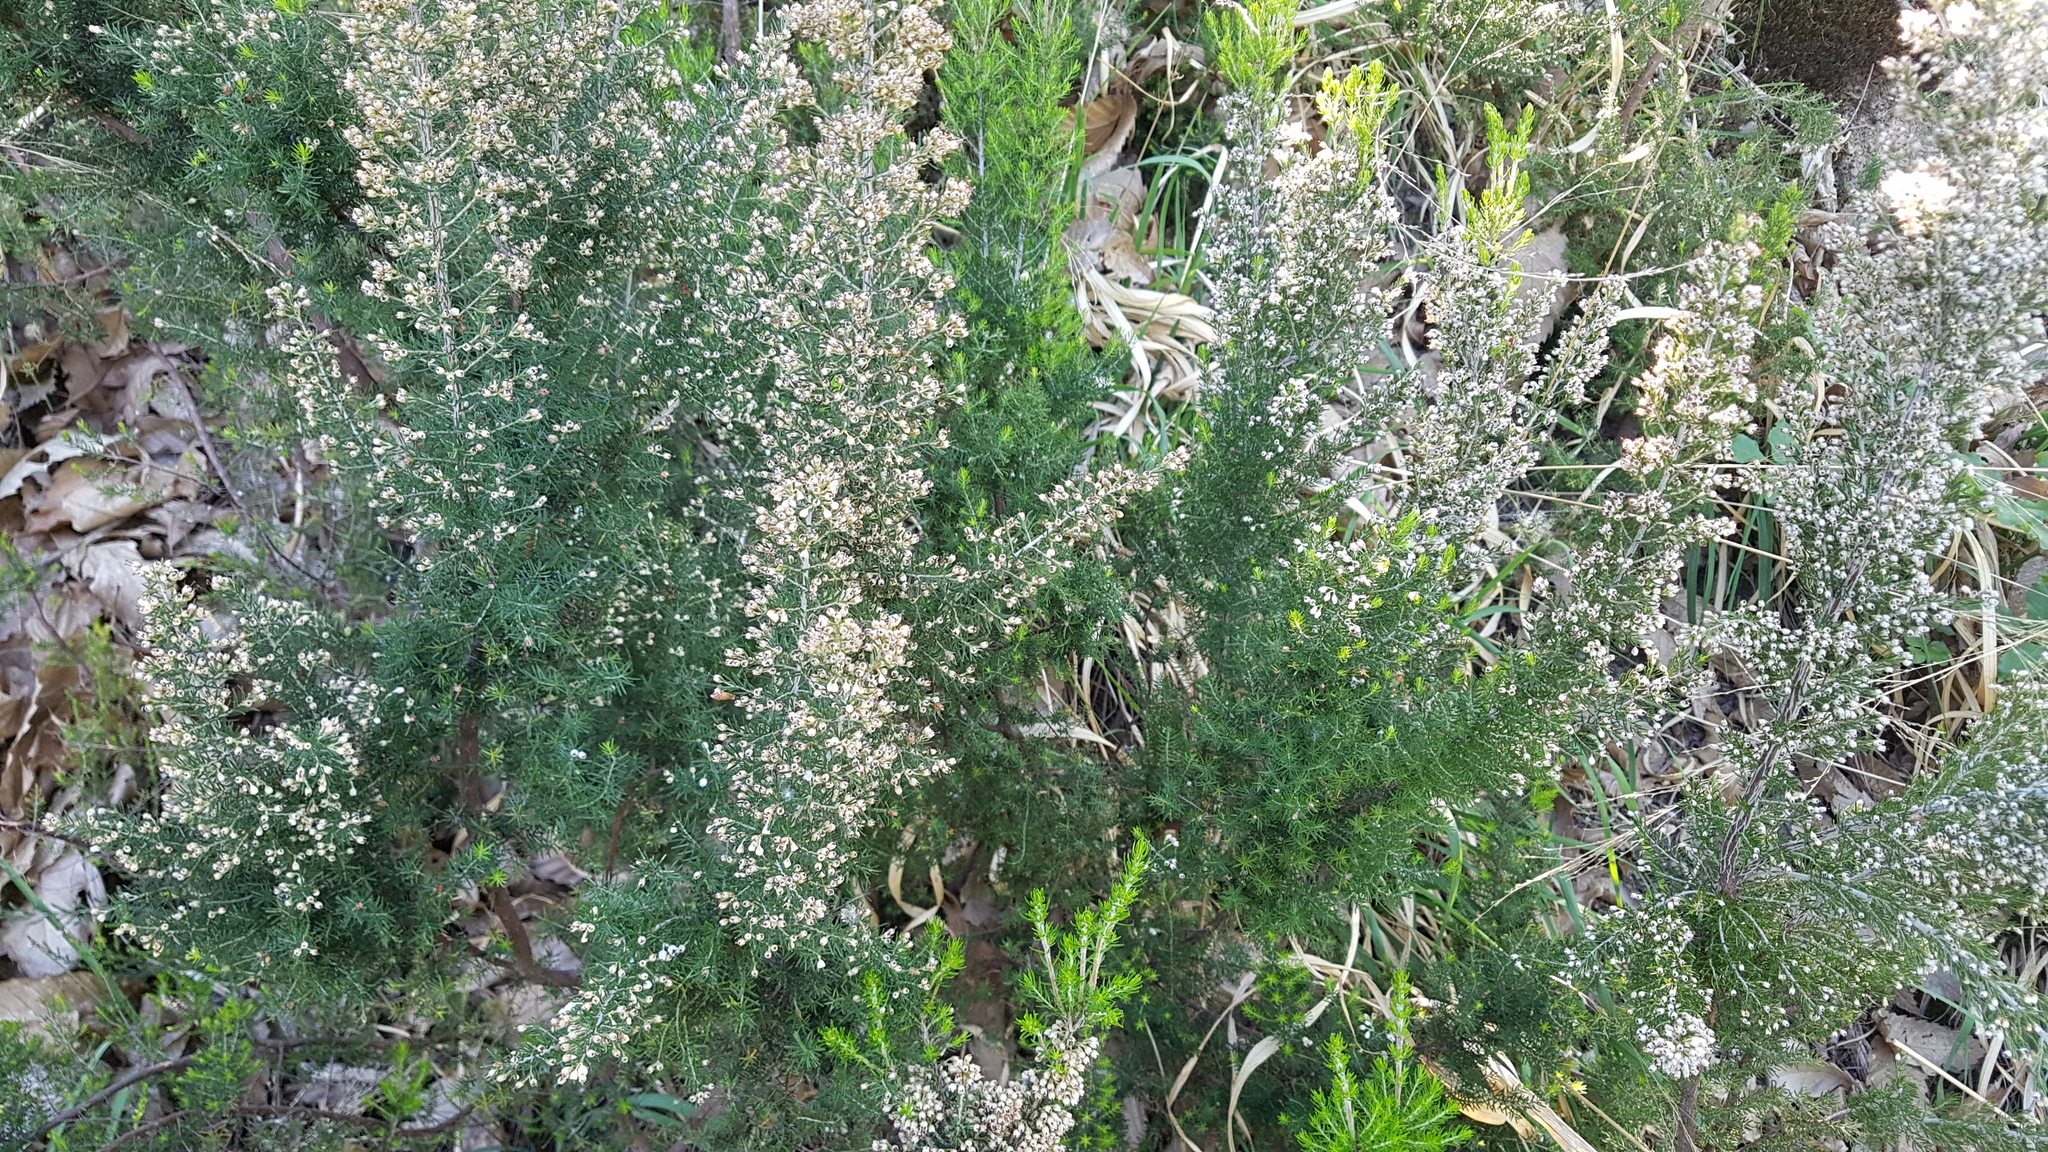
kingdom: Plantae
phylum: Tracheophyta
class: Magnoliopsida
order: Ericales
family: Ericaceae
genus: Erica
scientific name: Erica arborea
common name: Tree heath
